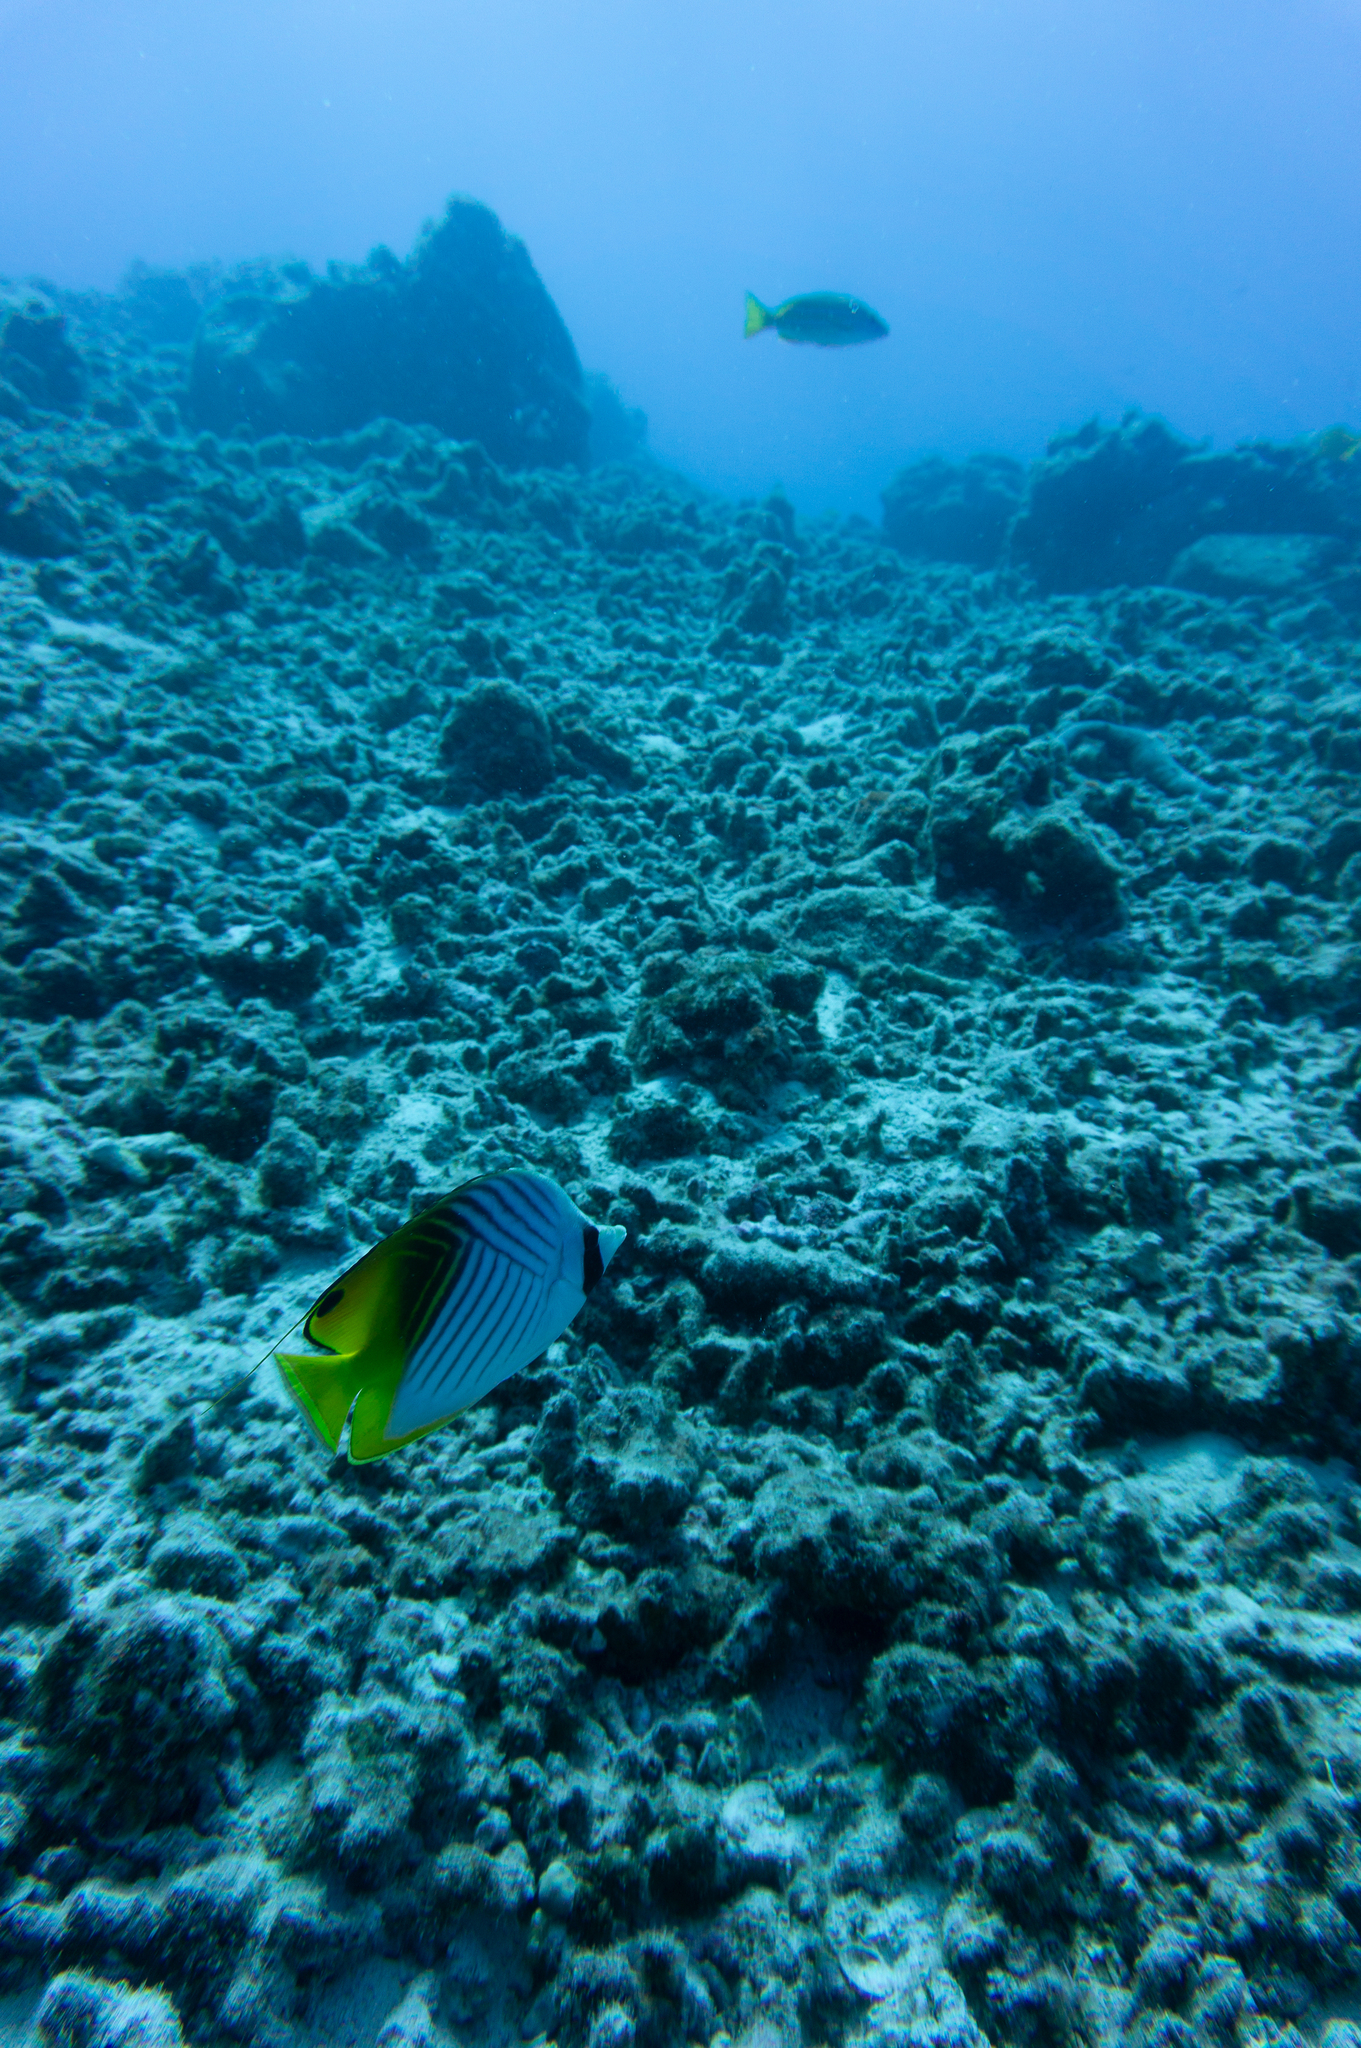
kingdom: Animalia
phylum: Chordata
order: Perciformes
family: Chaetodontidae
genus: Chaetodon
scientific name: Chaetodon auriga
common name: Threadfin butterflyfish
